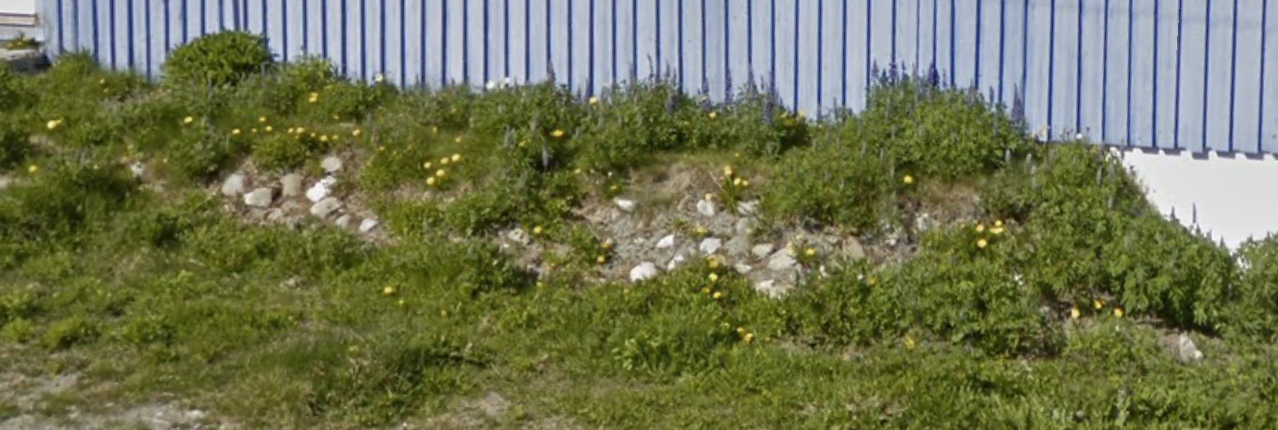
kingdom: Plantae
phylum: Tracheophyta
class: Magnoliopsida
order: Fabales
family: Fabaceae
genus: Lupinus
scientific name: Lupinus nootkatensis
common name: Nootka lupine
